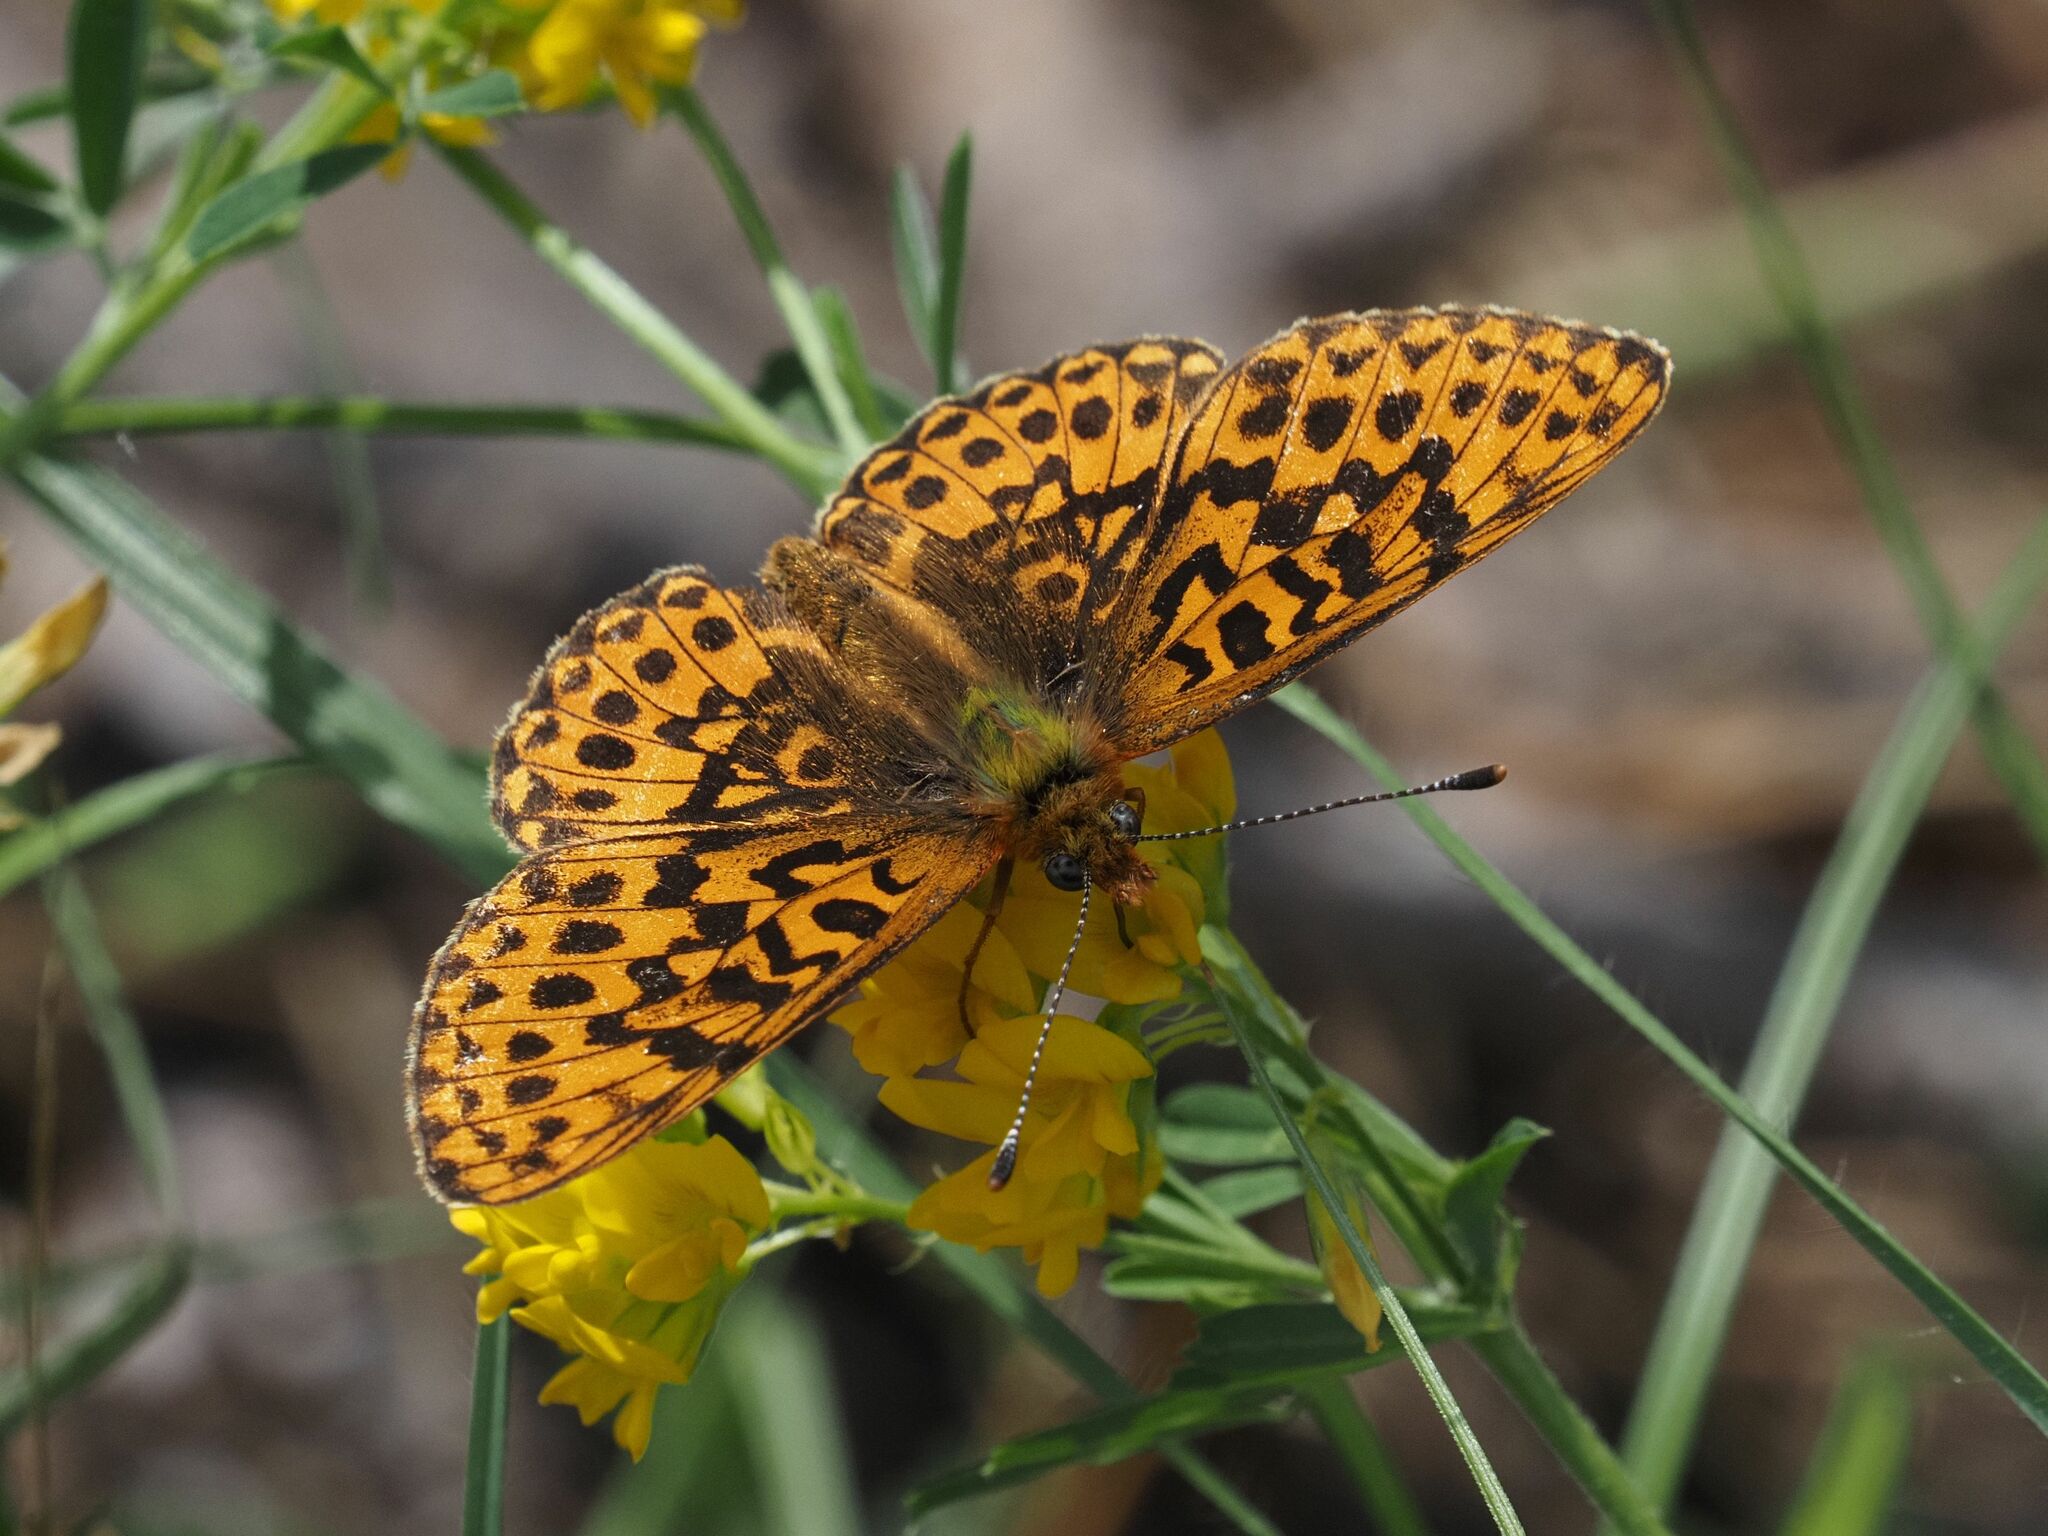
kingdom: Animalia
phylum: Arthropoda
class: Insecta
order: Lepidoptera
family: Nymphalidae
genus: Clossiana
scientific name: Clossiana euphrosyne
